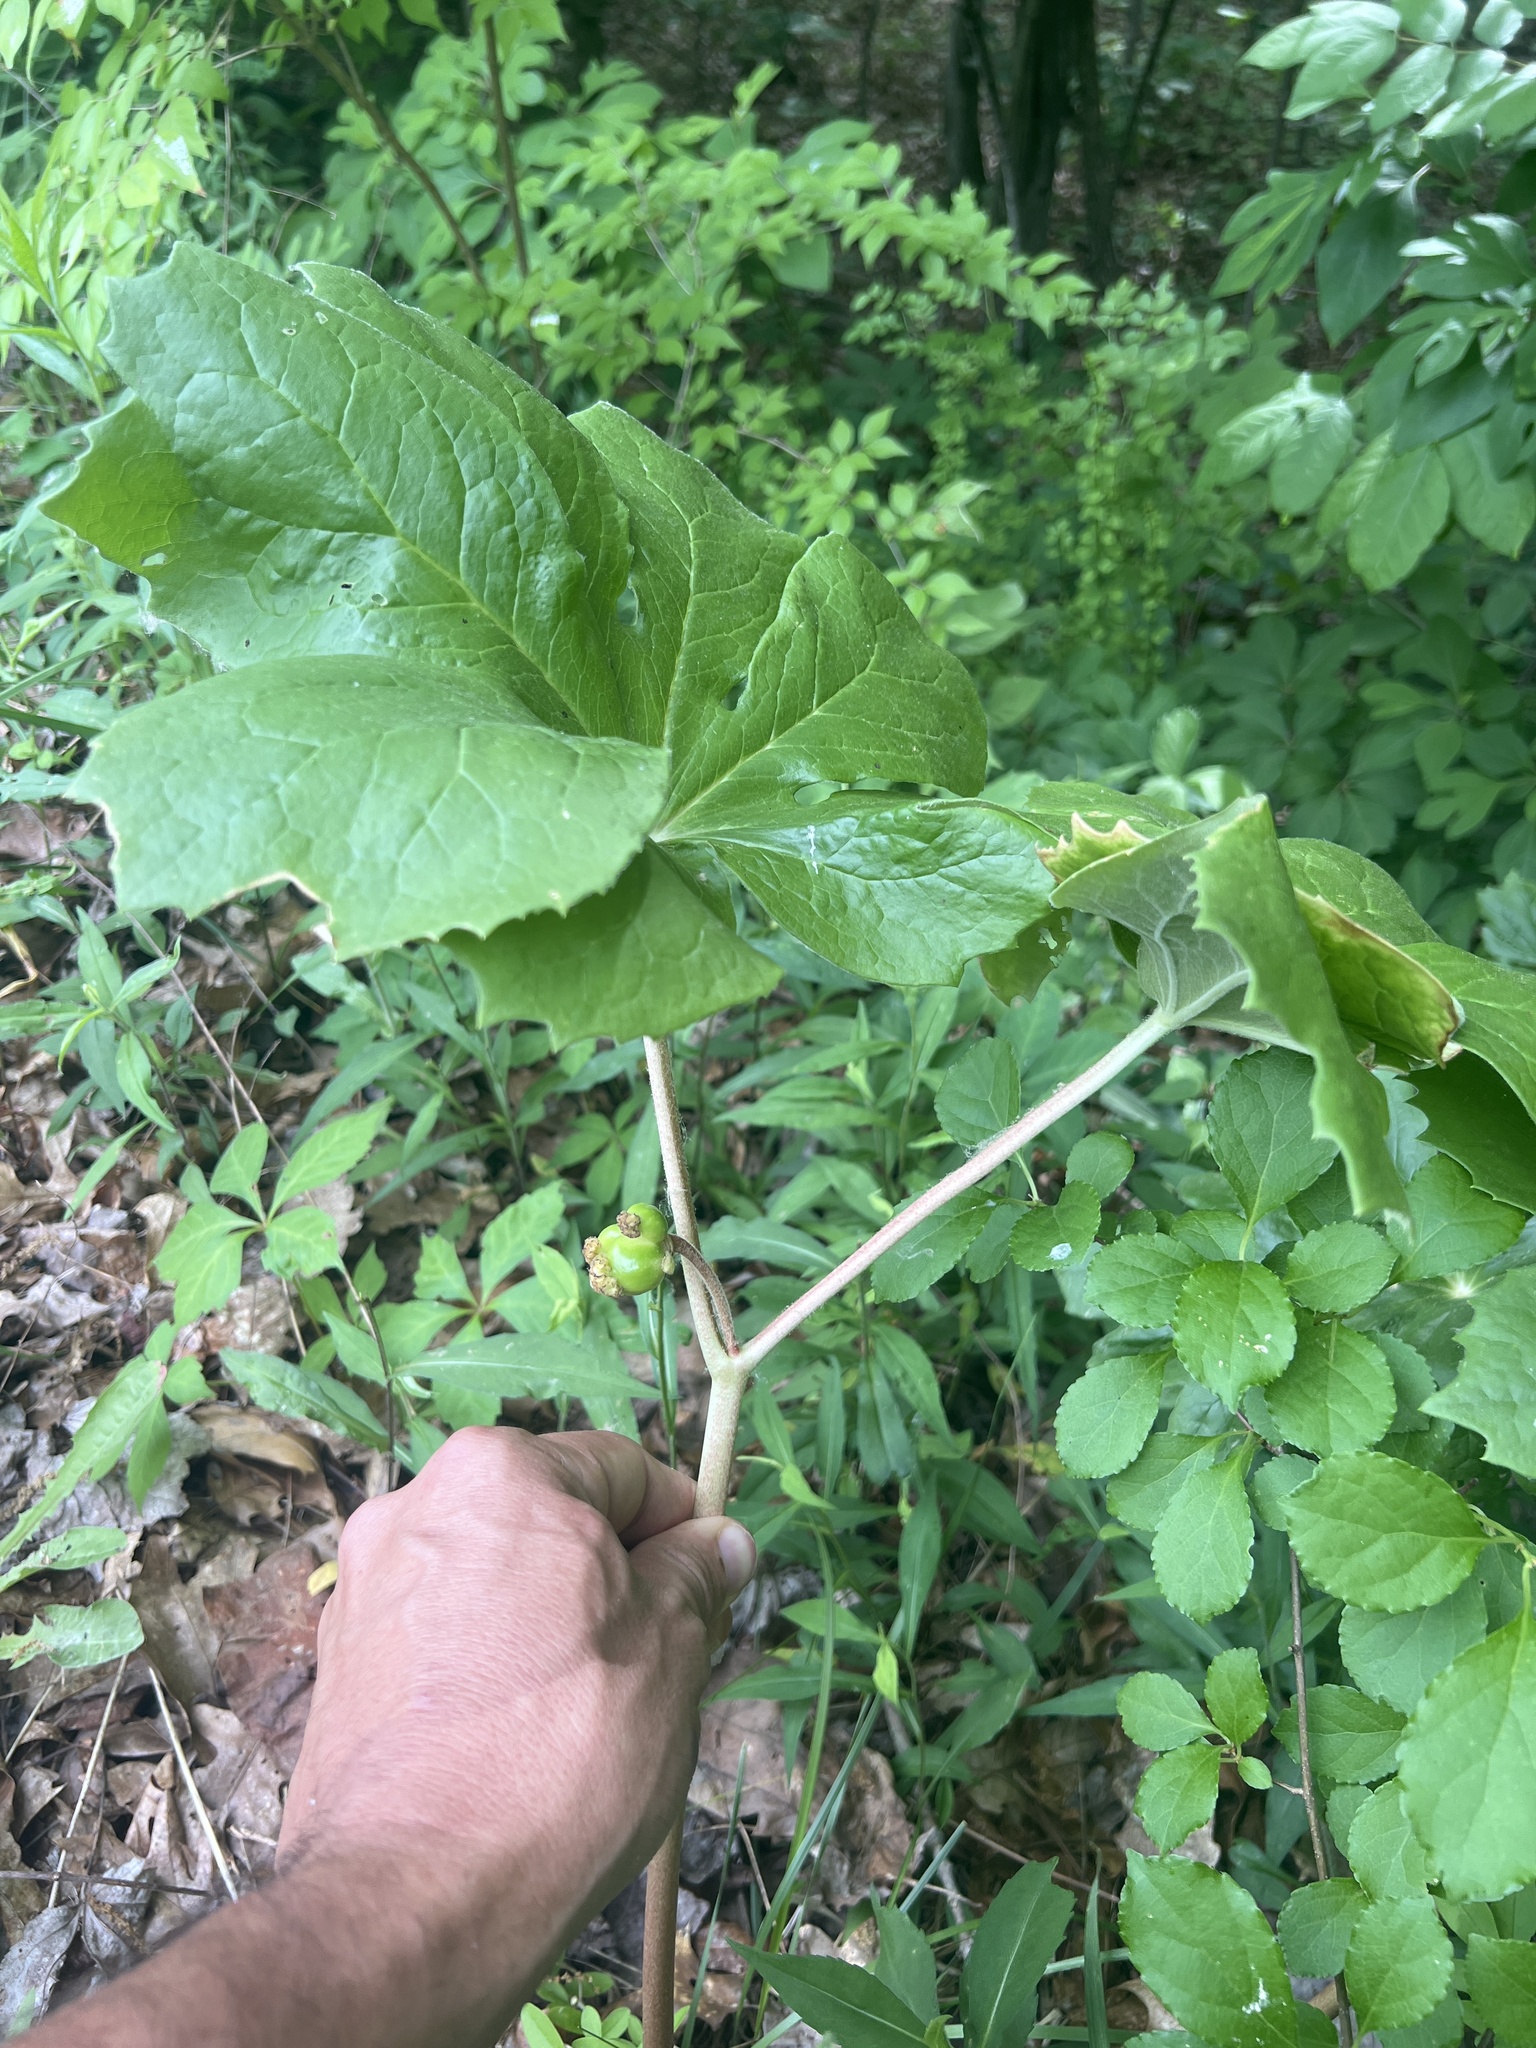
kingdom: Plantae
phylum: Tracheophyta
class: Magnoliopsida
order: Ranunculales
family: Berberidaceae
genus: Podophyllum
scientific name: Podophyllum peltatum
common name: Wild mandrake
